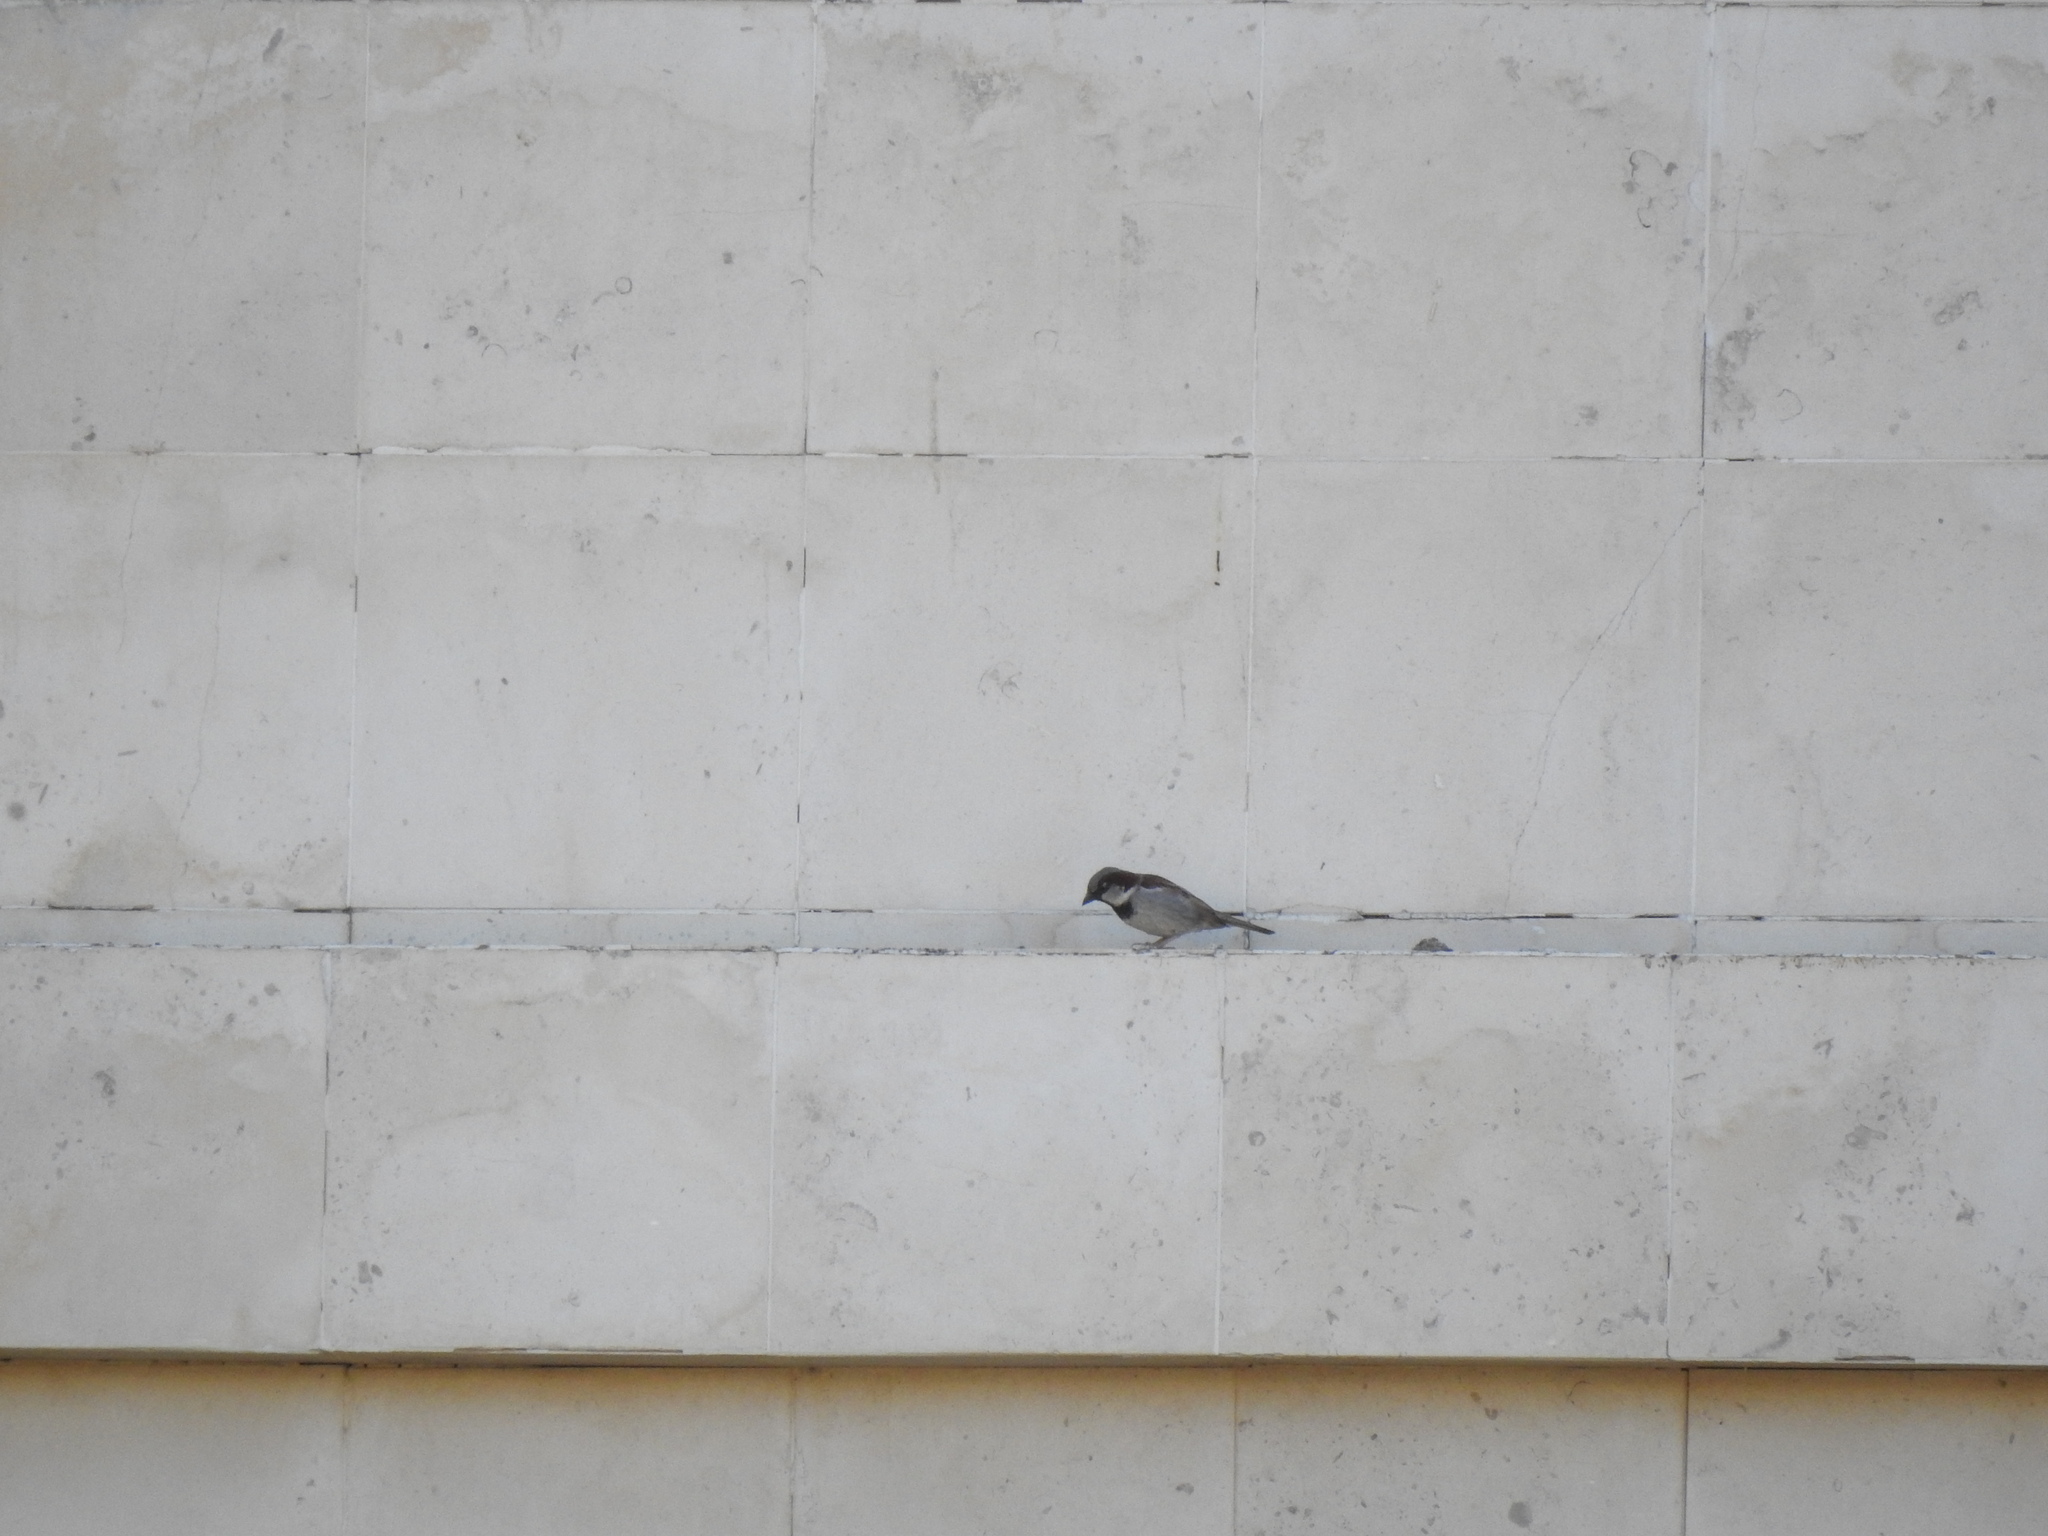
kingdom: Animalia
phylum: Chordata
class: Aves
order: Passeriformes
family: Passeridae
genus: Passer
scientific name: Passer domesticus
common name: House sparrow
